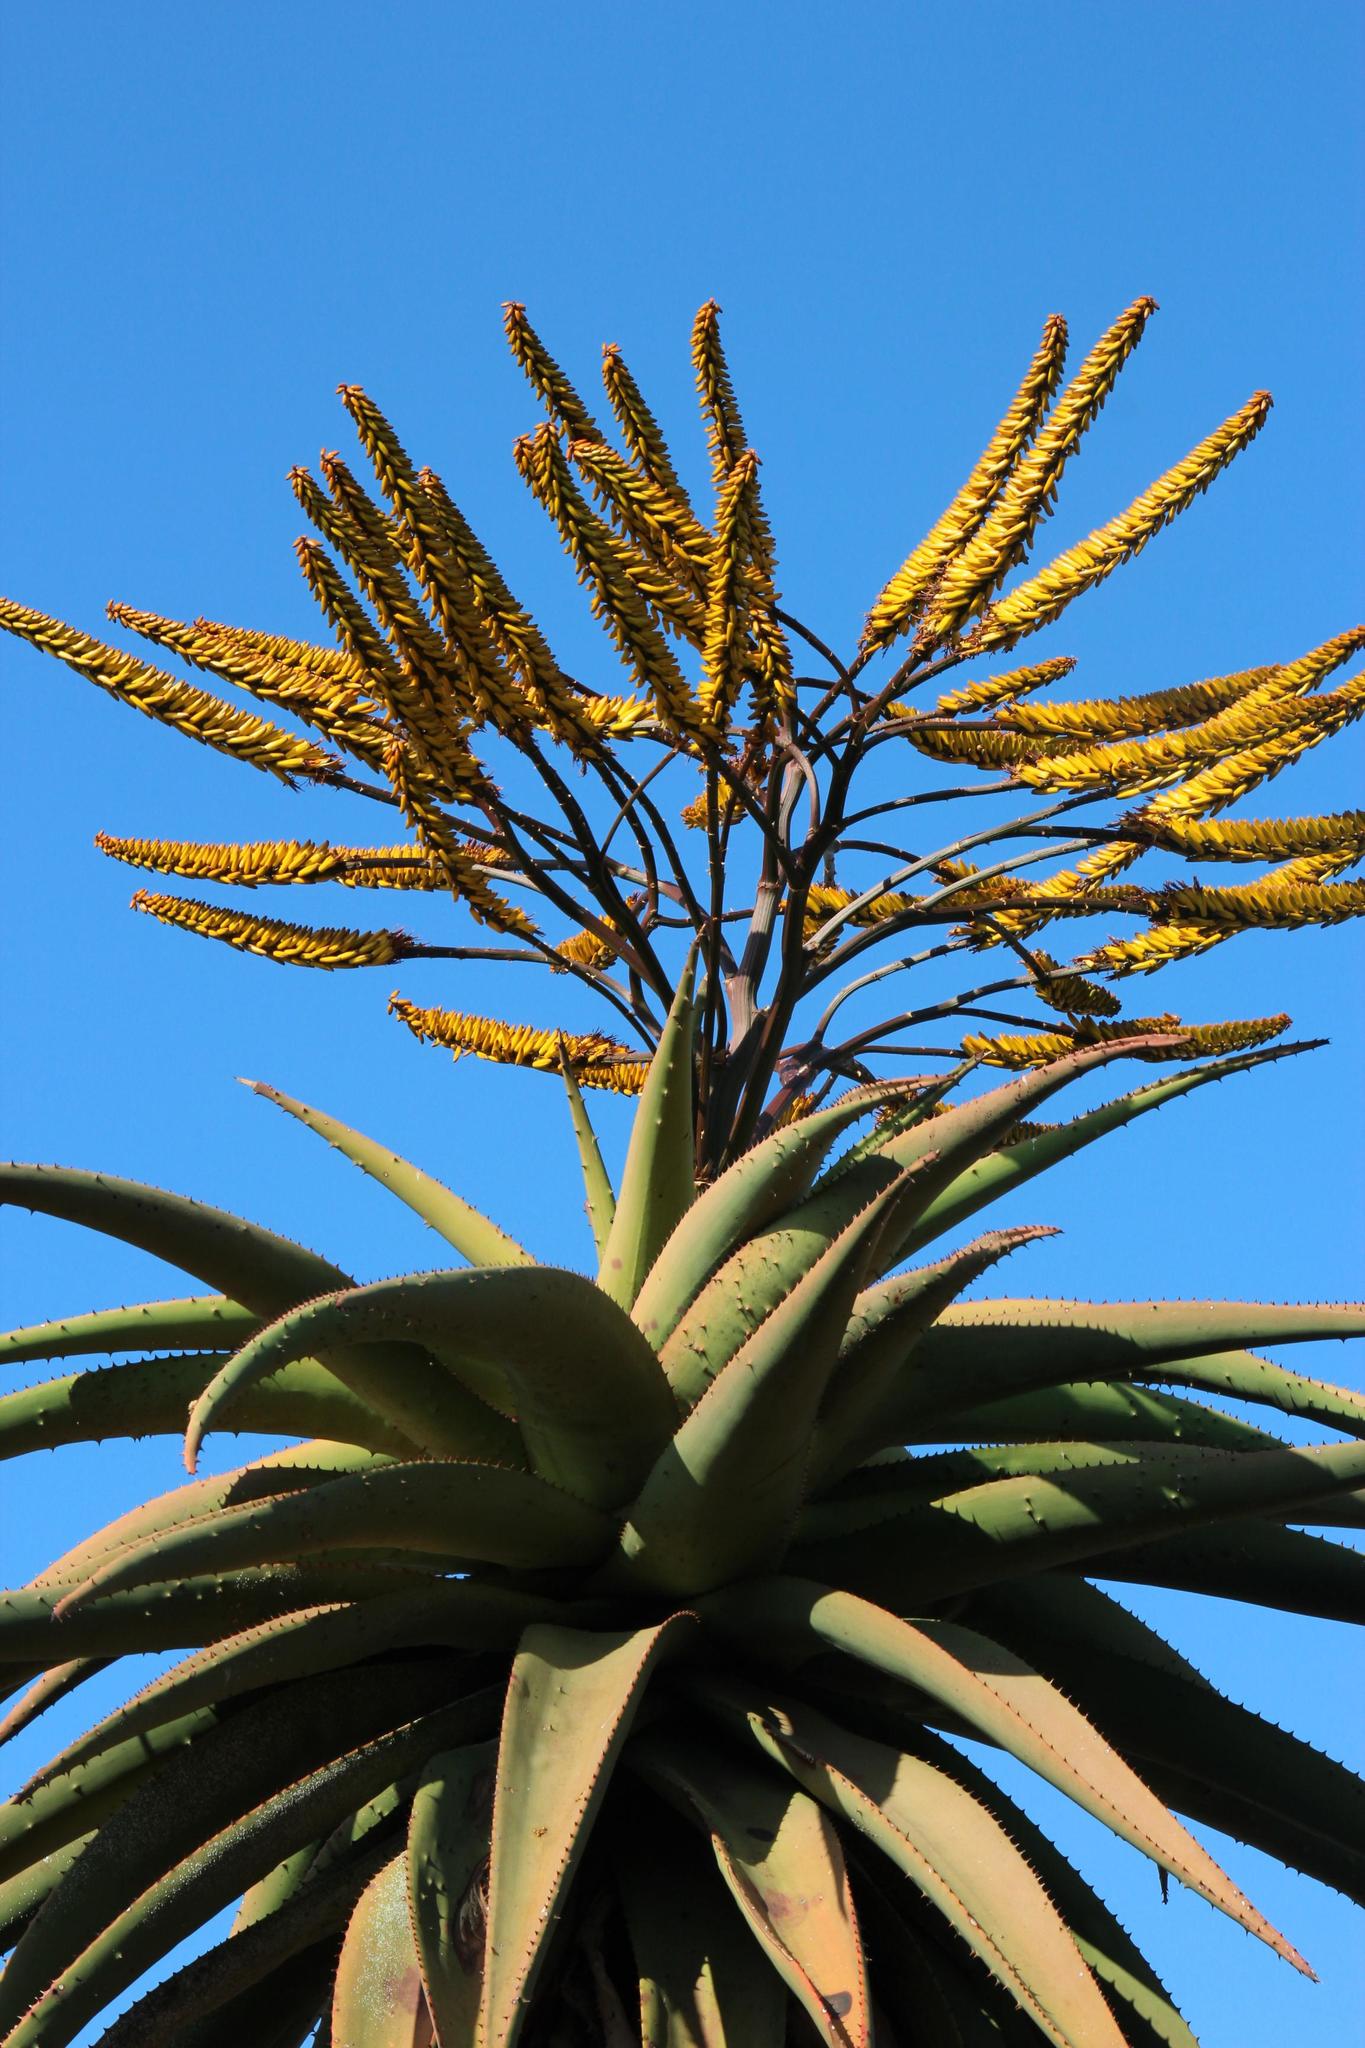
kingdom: Plantae
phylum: Tracheophyta
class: Liliopsida
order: Asparagales
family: Asphodelaceae
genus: Aloe
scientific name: Aloe marlothii
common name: Flat-flowered aloe
